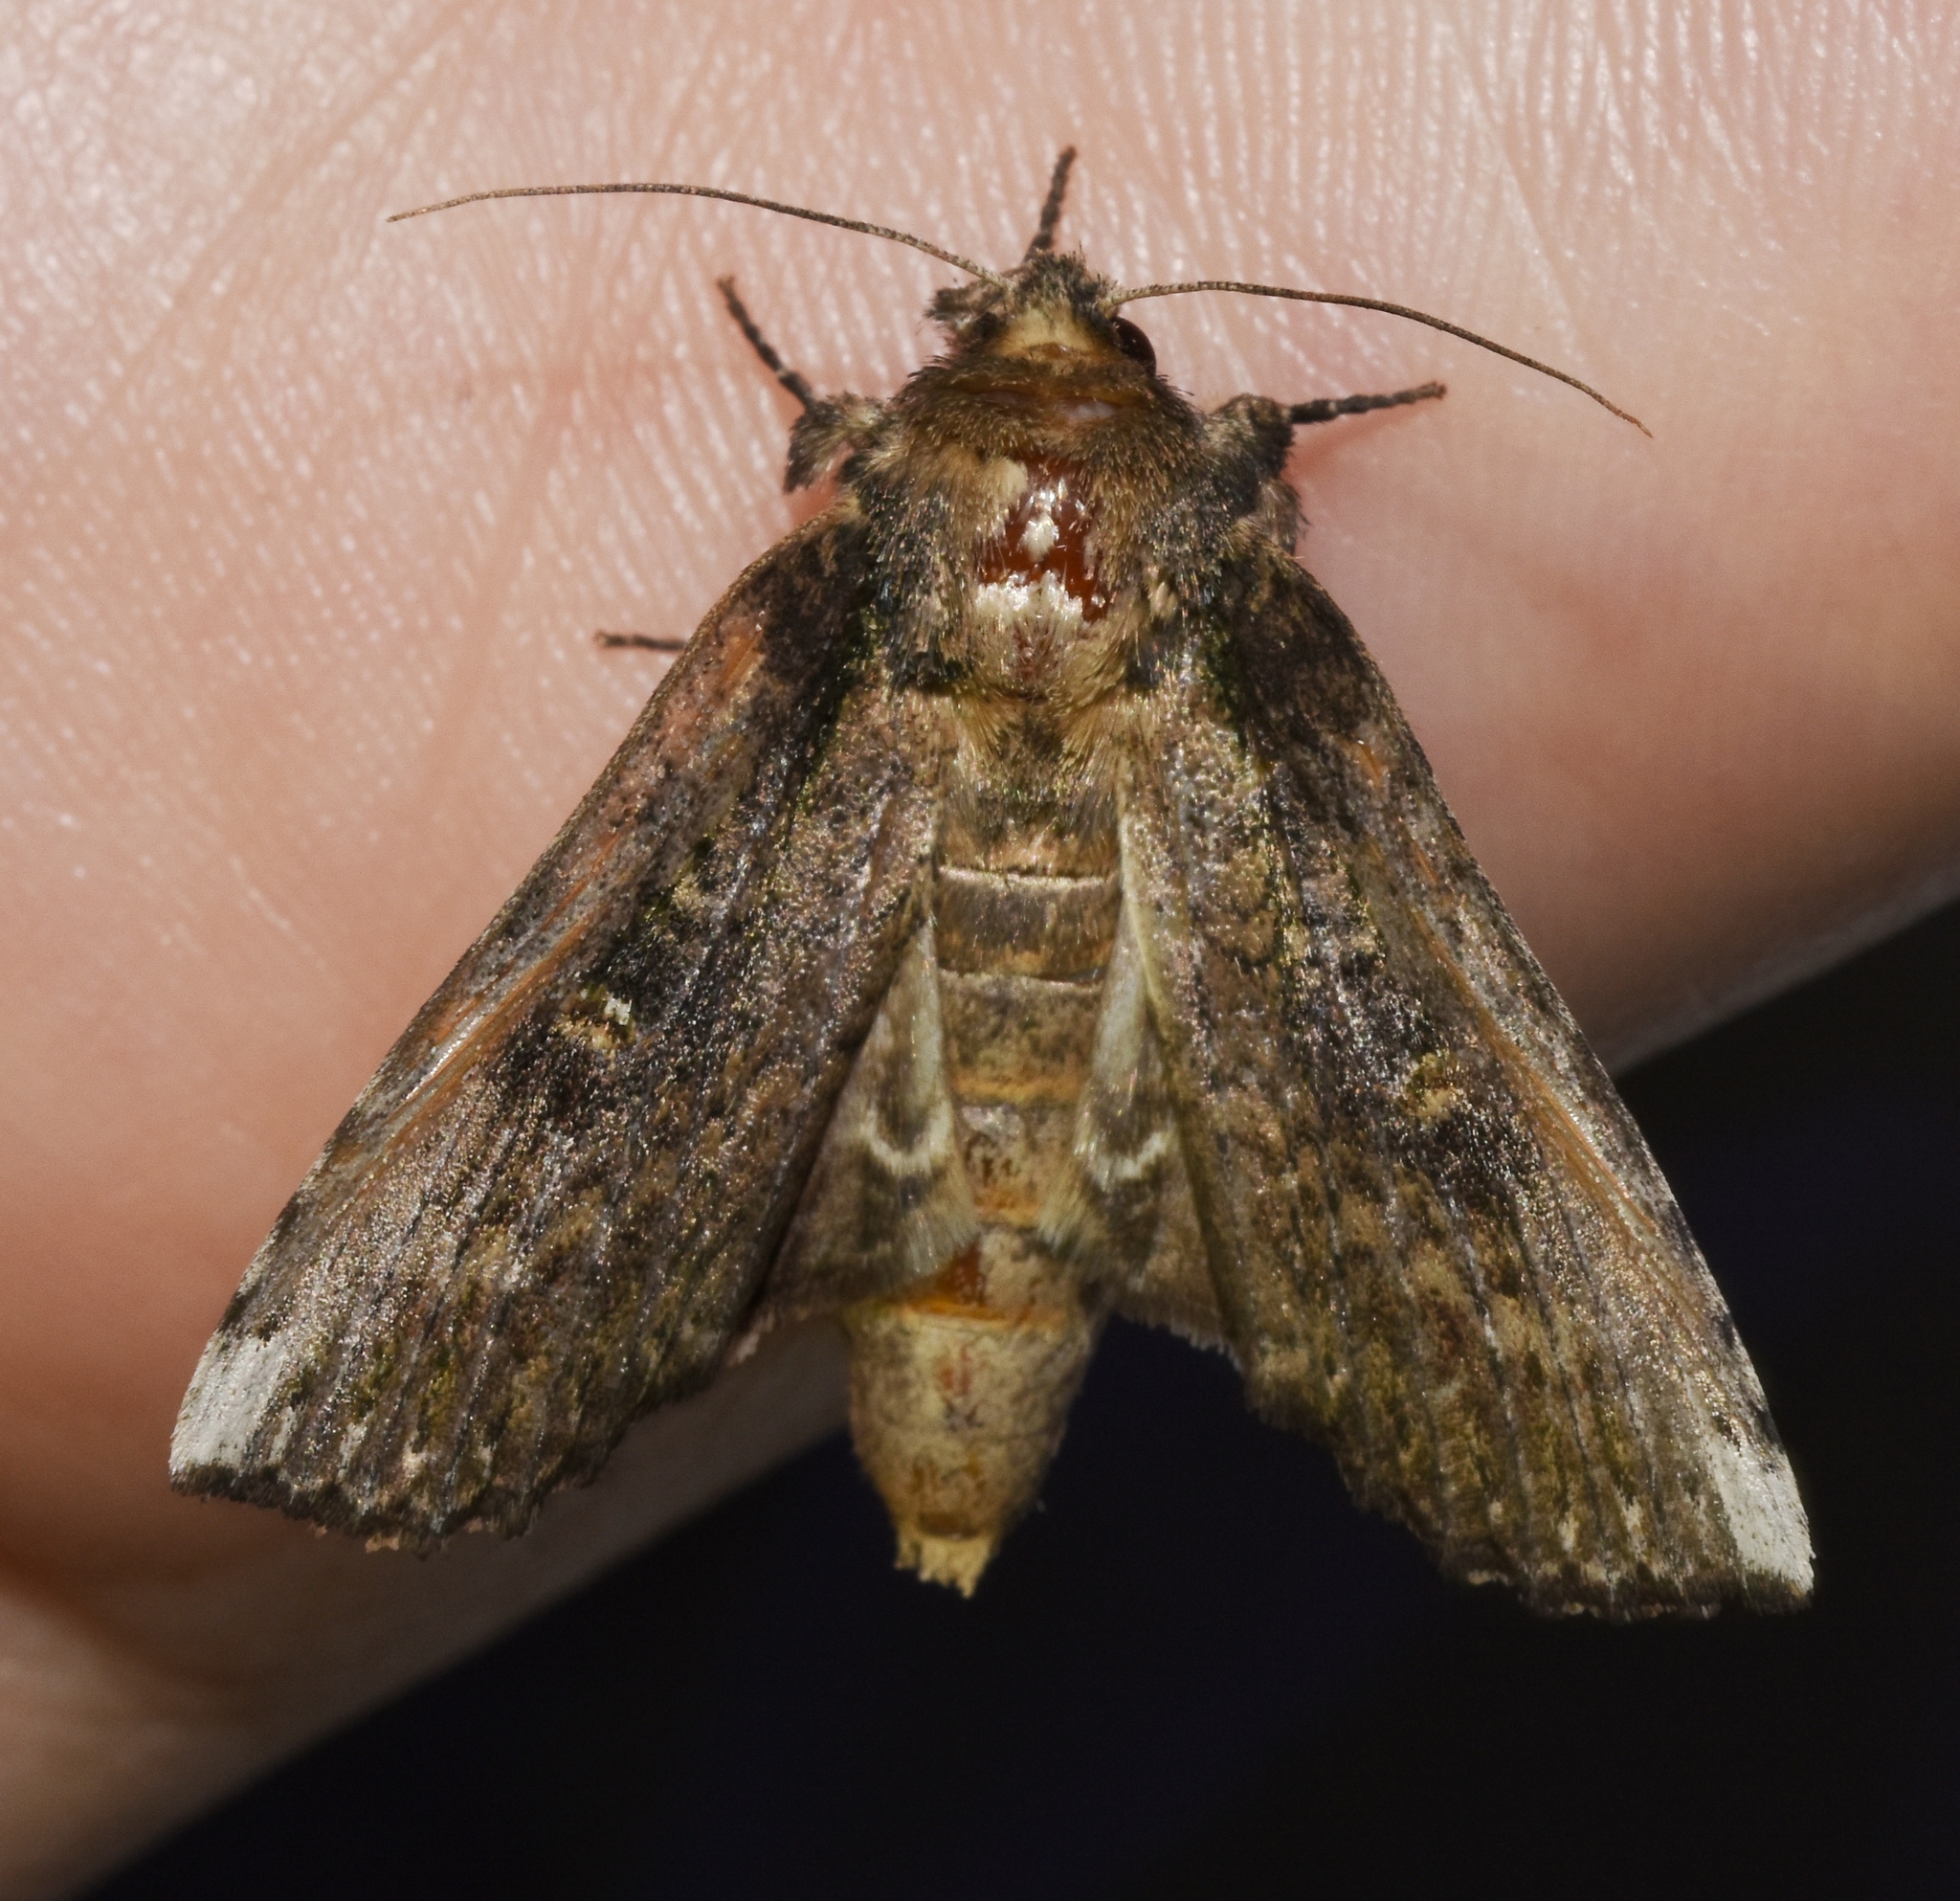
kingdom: Animalia
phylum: Arthropoda
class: Insecta
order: Lepidoptera
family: Notodontidae
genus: Schizura
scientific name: Schizura ipomaeae
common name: Morning-glory prominent
